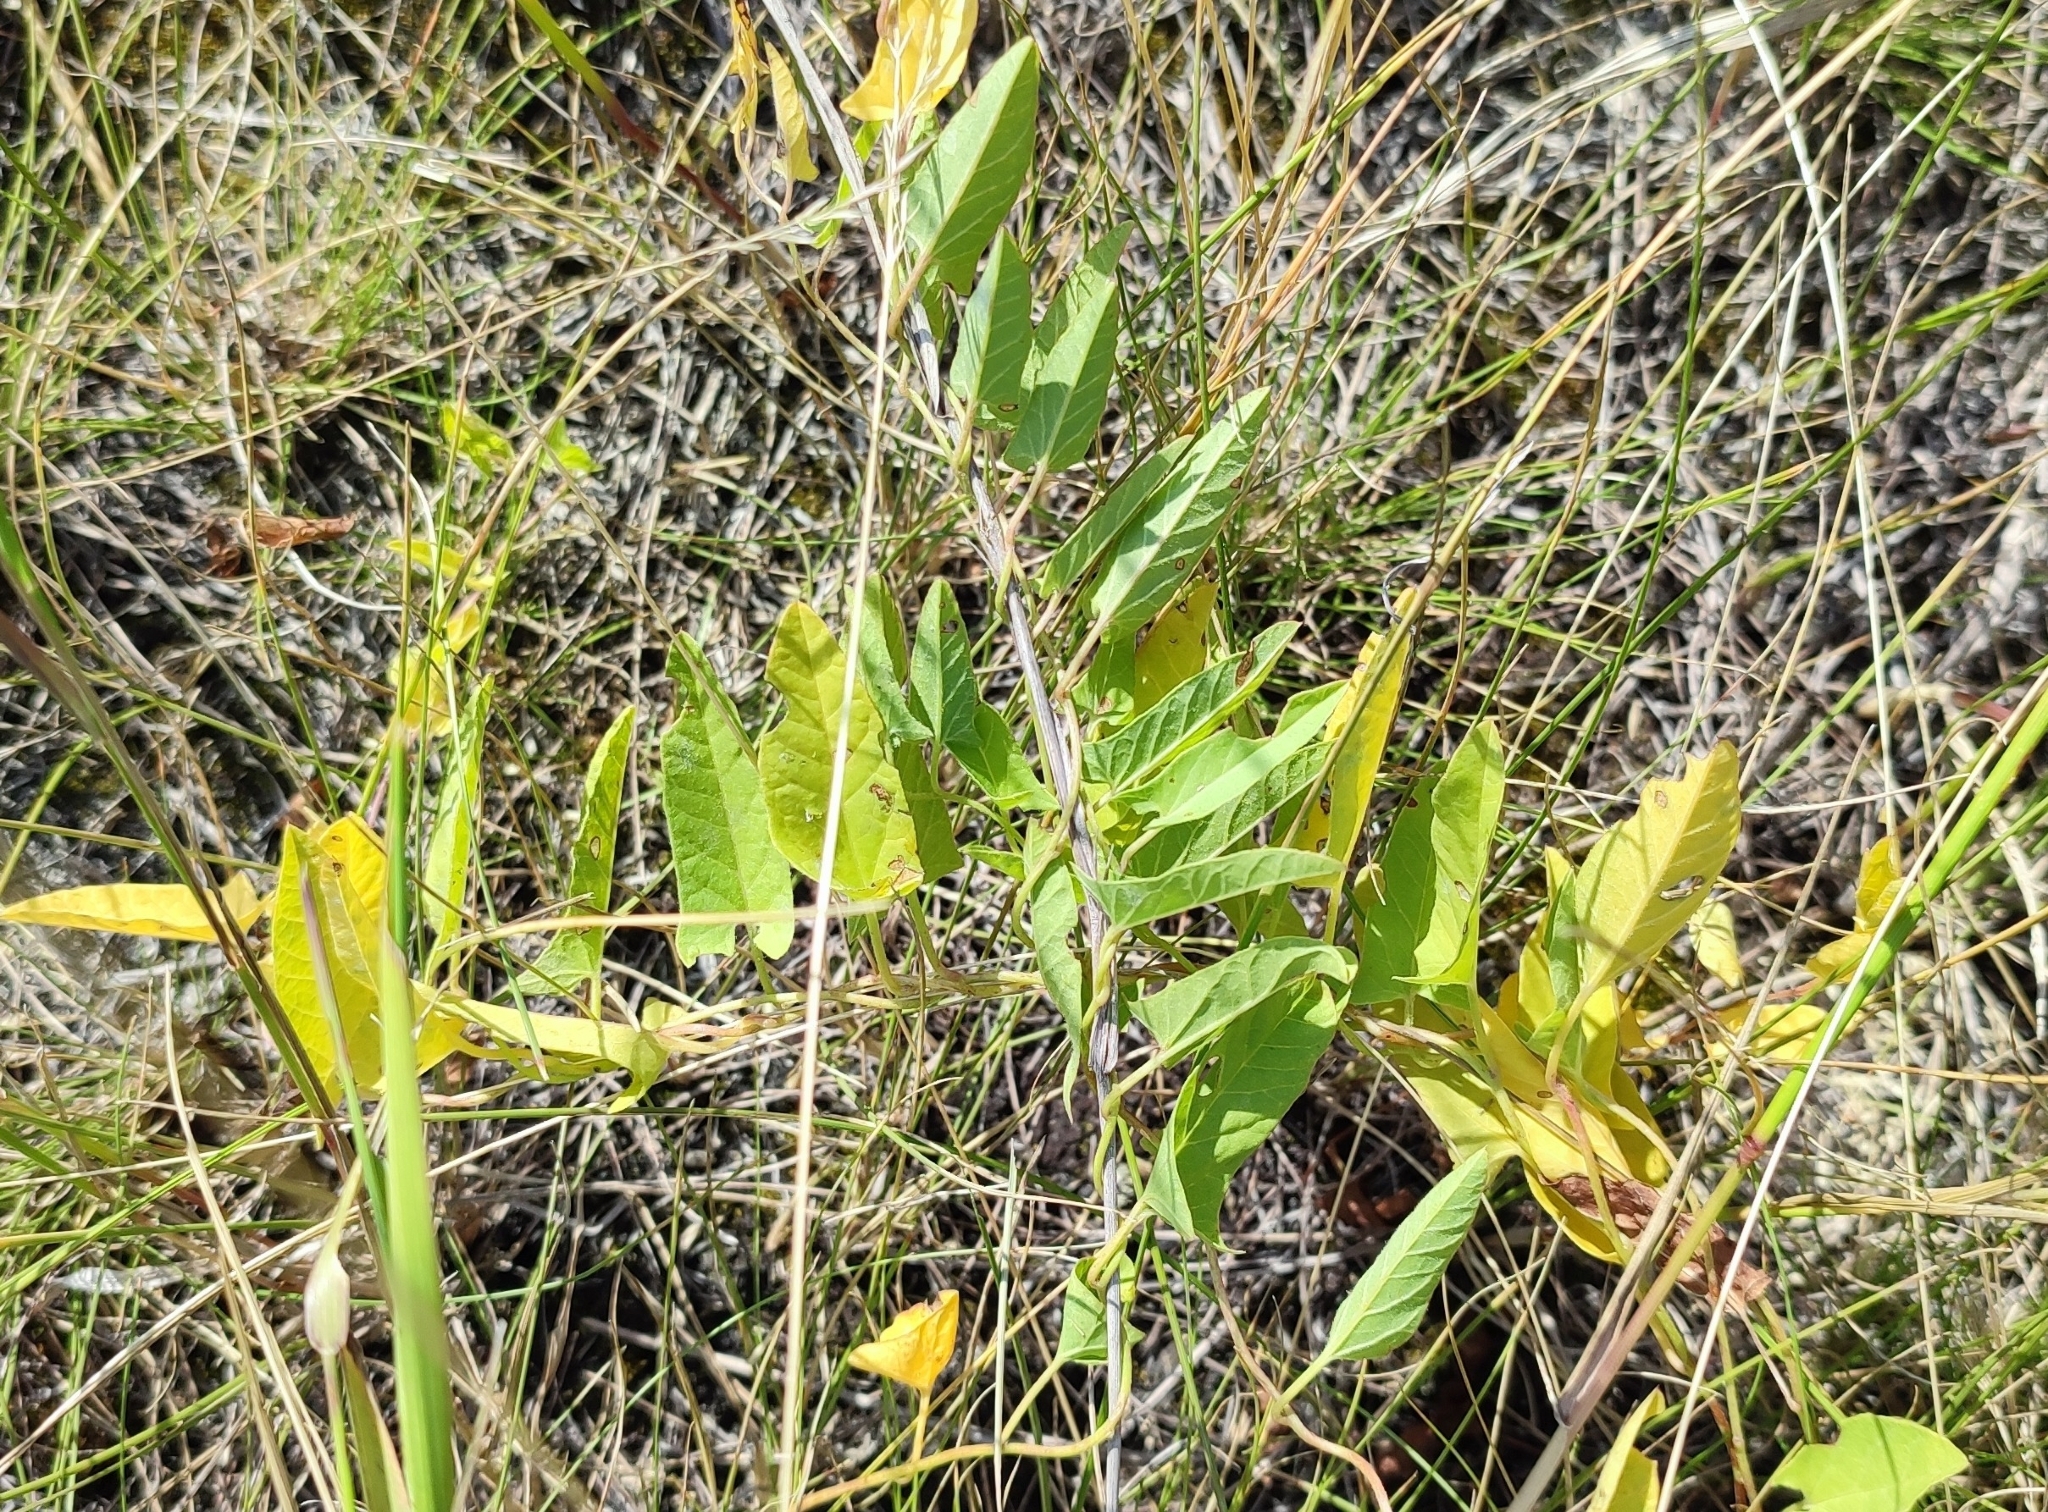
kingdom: Plantae
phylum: Tracheophyta
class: Magnoliopsida
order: Solanales
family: Convolvulaceae
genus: Convolvulus
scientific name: Convolvulus arvensis
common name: Field bindweed
